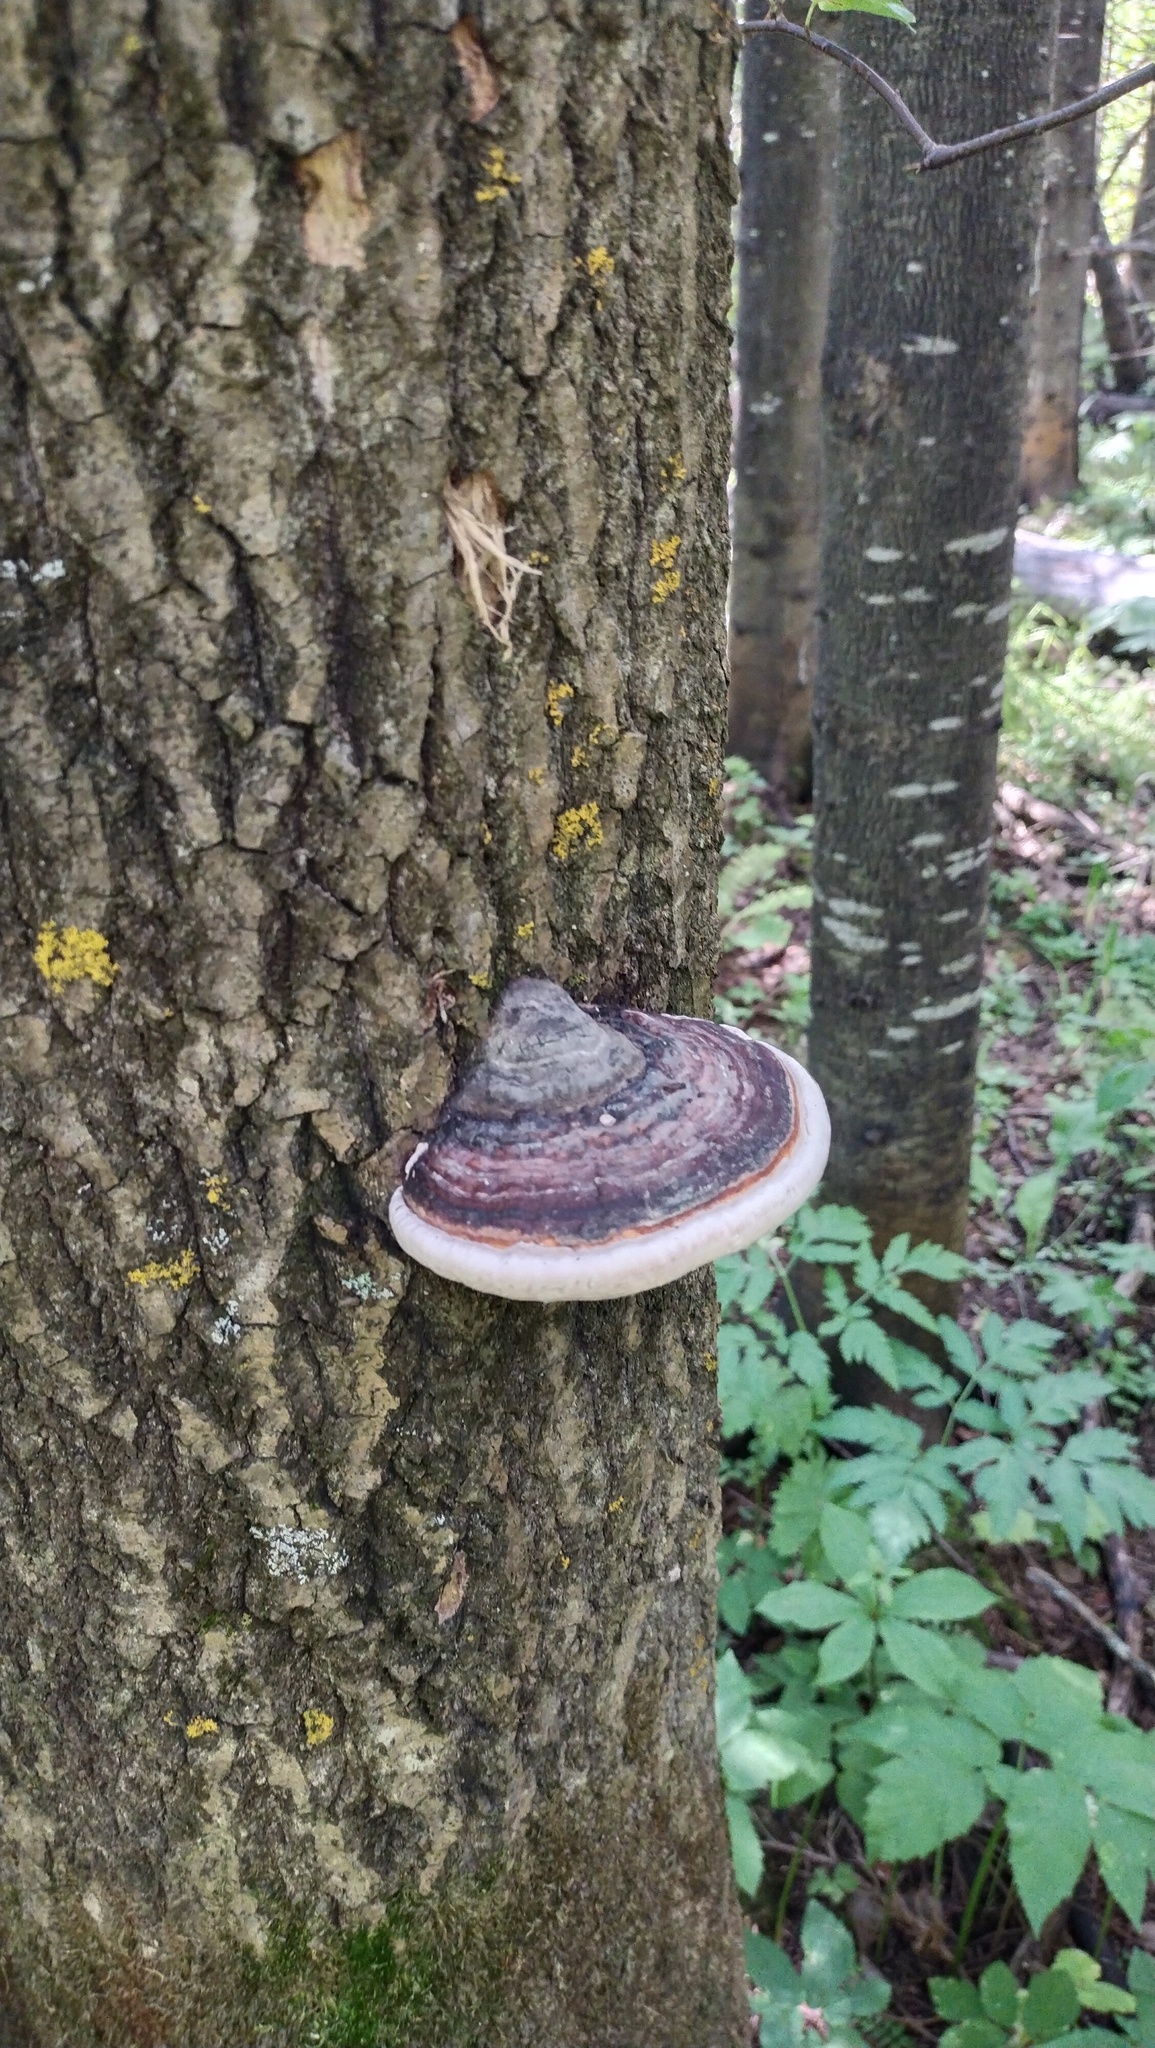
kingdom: Fungi
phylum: Basidiomycota
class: Agaricomycetes
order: Polyporales
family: Fomitopsidaceae
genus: Fomitopsis
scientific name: Fomitopsis pinicola
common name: Red-belted bracket
